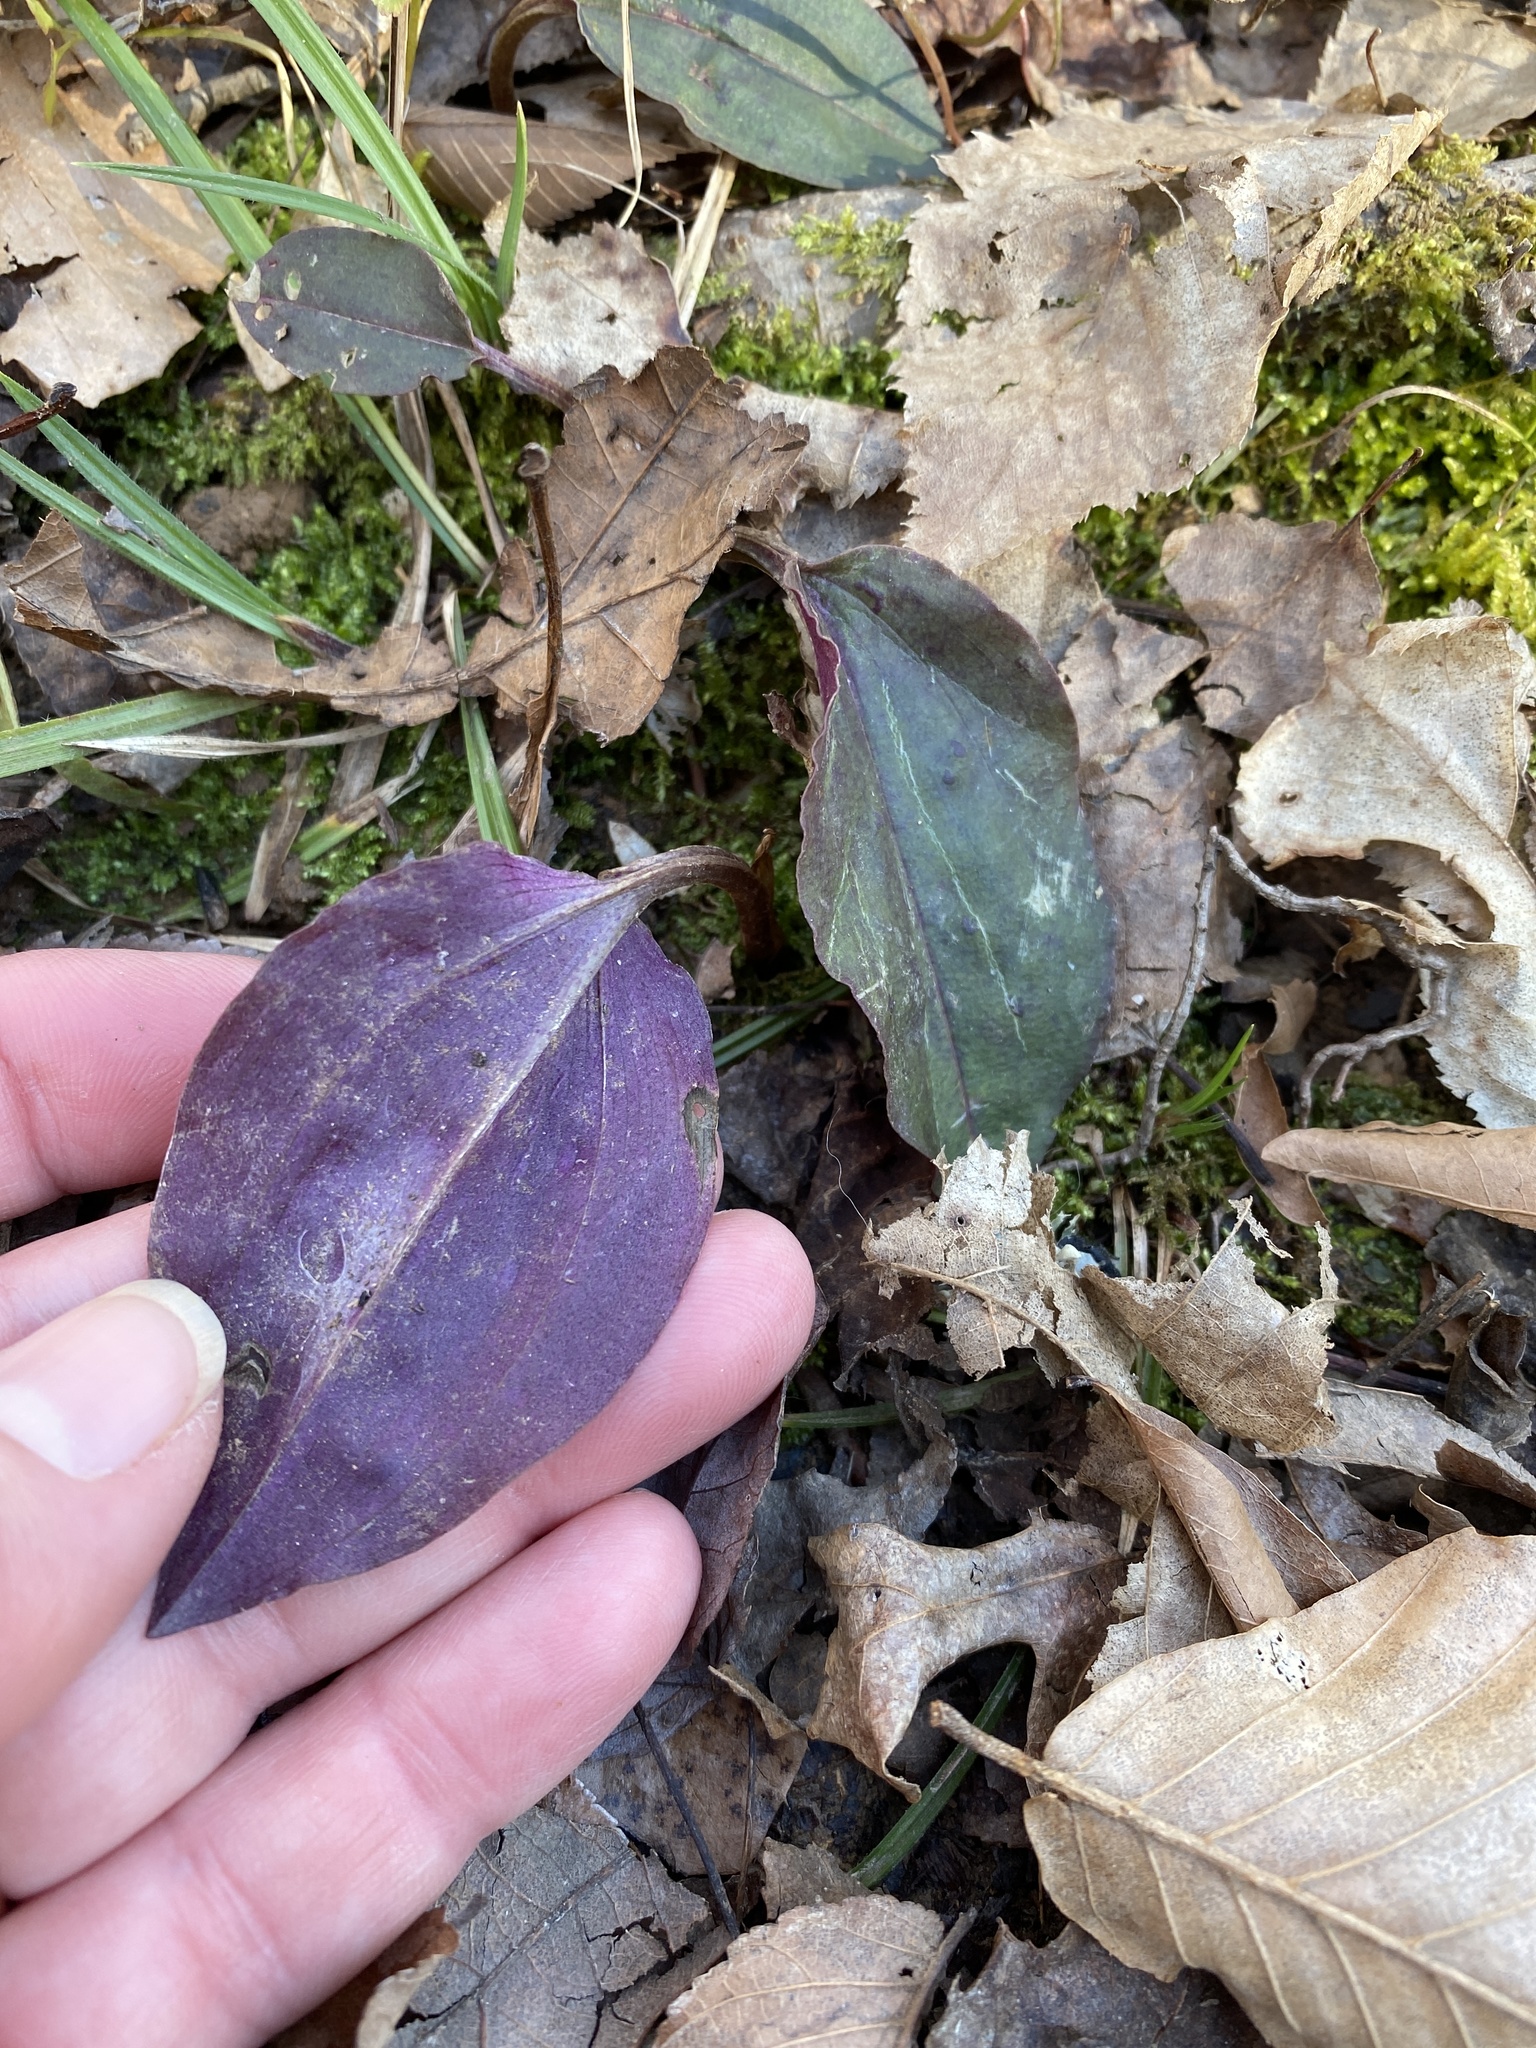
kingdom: Plantae
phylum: Tracheophyta
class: Liliopsida
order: Asparagales
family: Orchidaceae
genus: Tipularia
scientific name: Tipularia discolor
